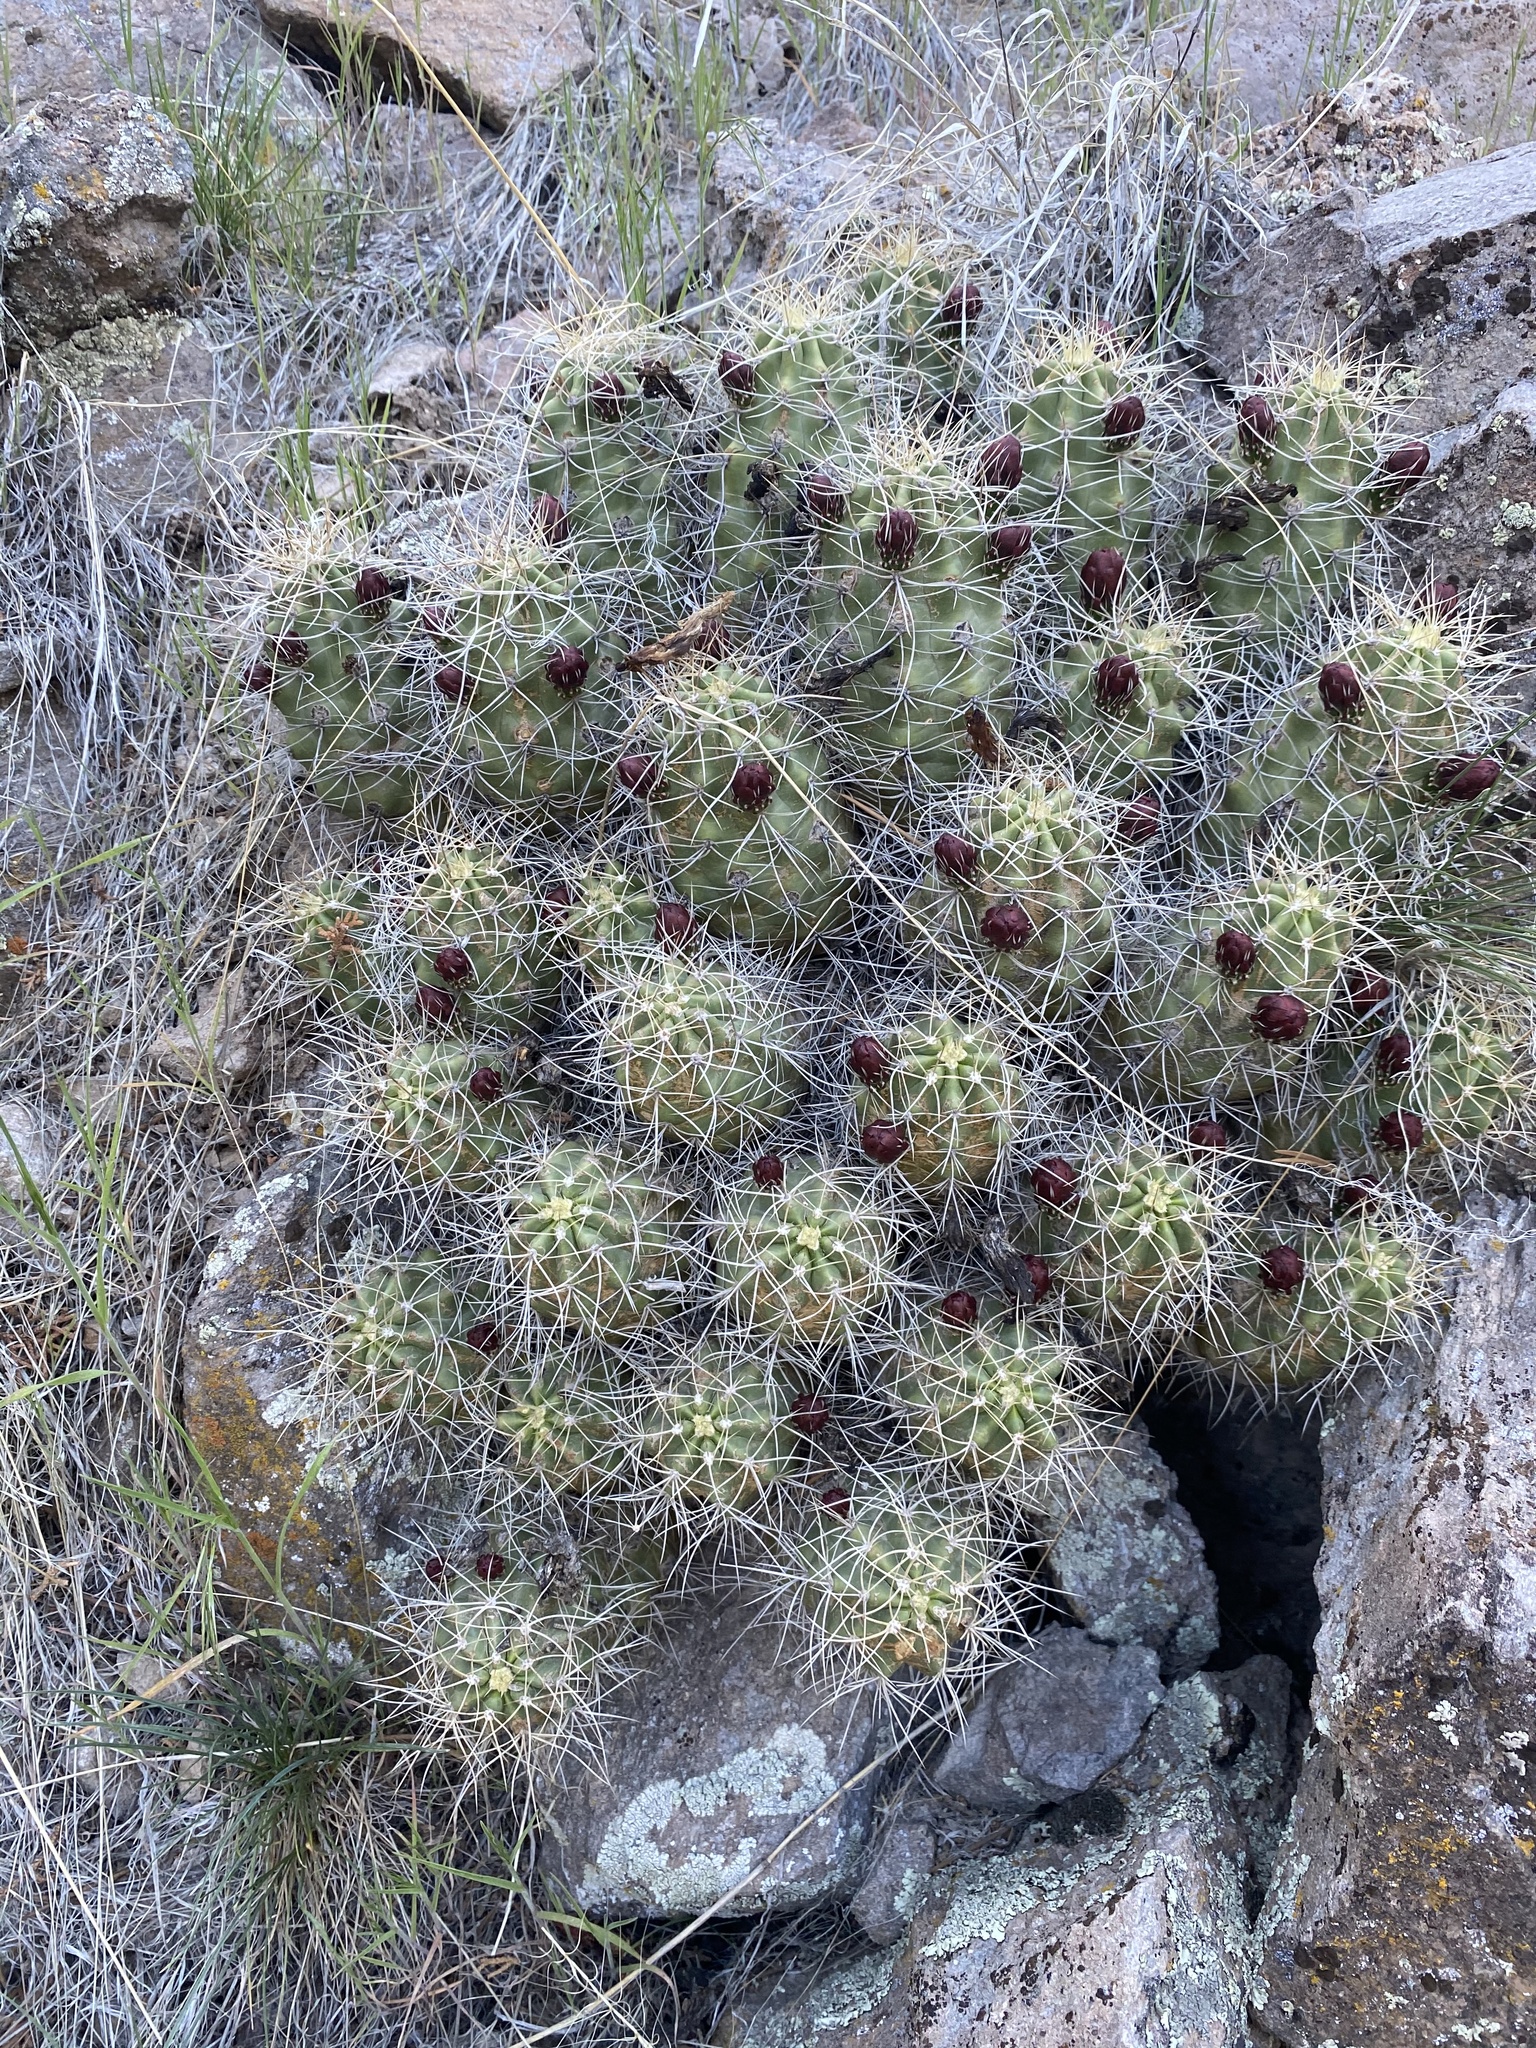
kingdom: Plantae
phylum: Tracheophyta
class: Magnoliopsida
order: Caryophyllales
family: Cactaceae
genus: Echinocereus
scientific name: Echinocereus triglochidiatus
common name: Claretcup hedgehog
